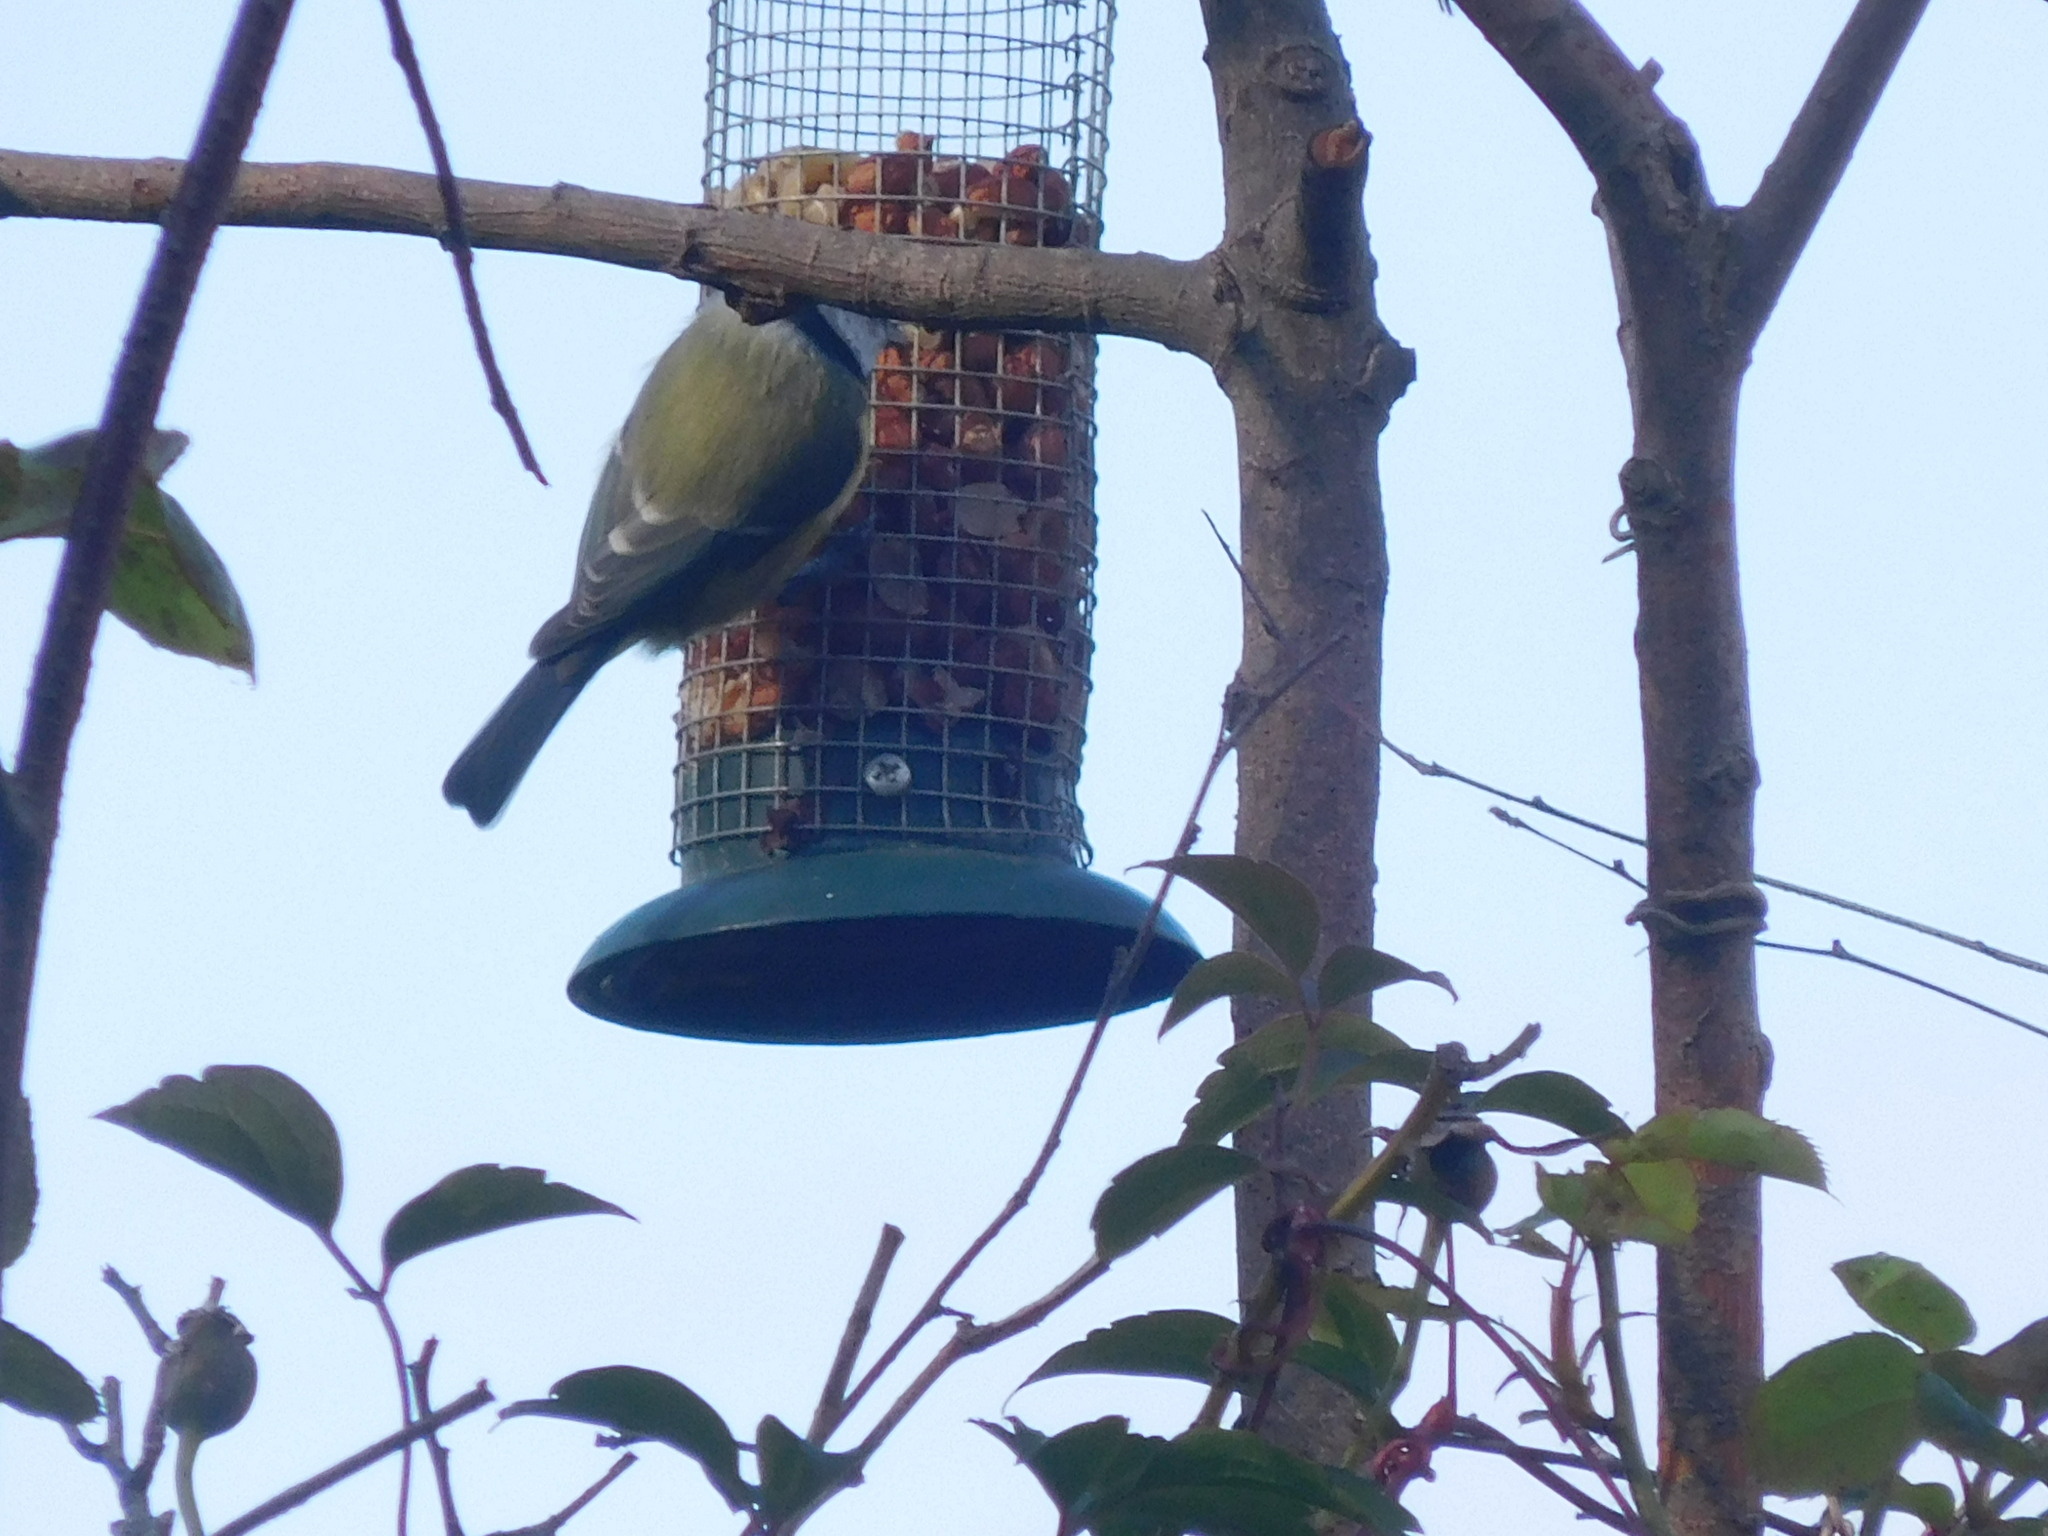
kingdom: Animalia
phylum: Chordata
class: Aves
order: Passeriformes
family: Paridae
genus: Cyanistes
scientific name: Cyanistes caeruleus
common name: Eurasian blue tit
